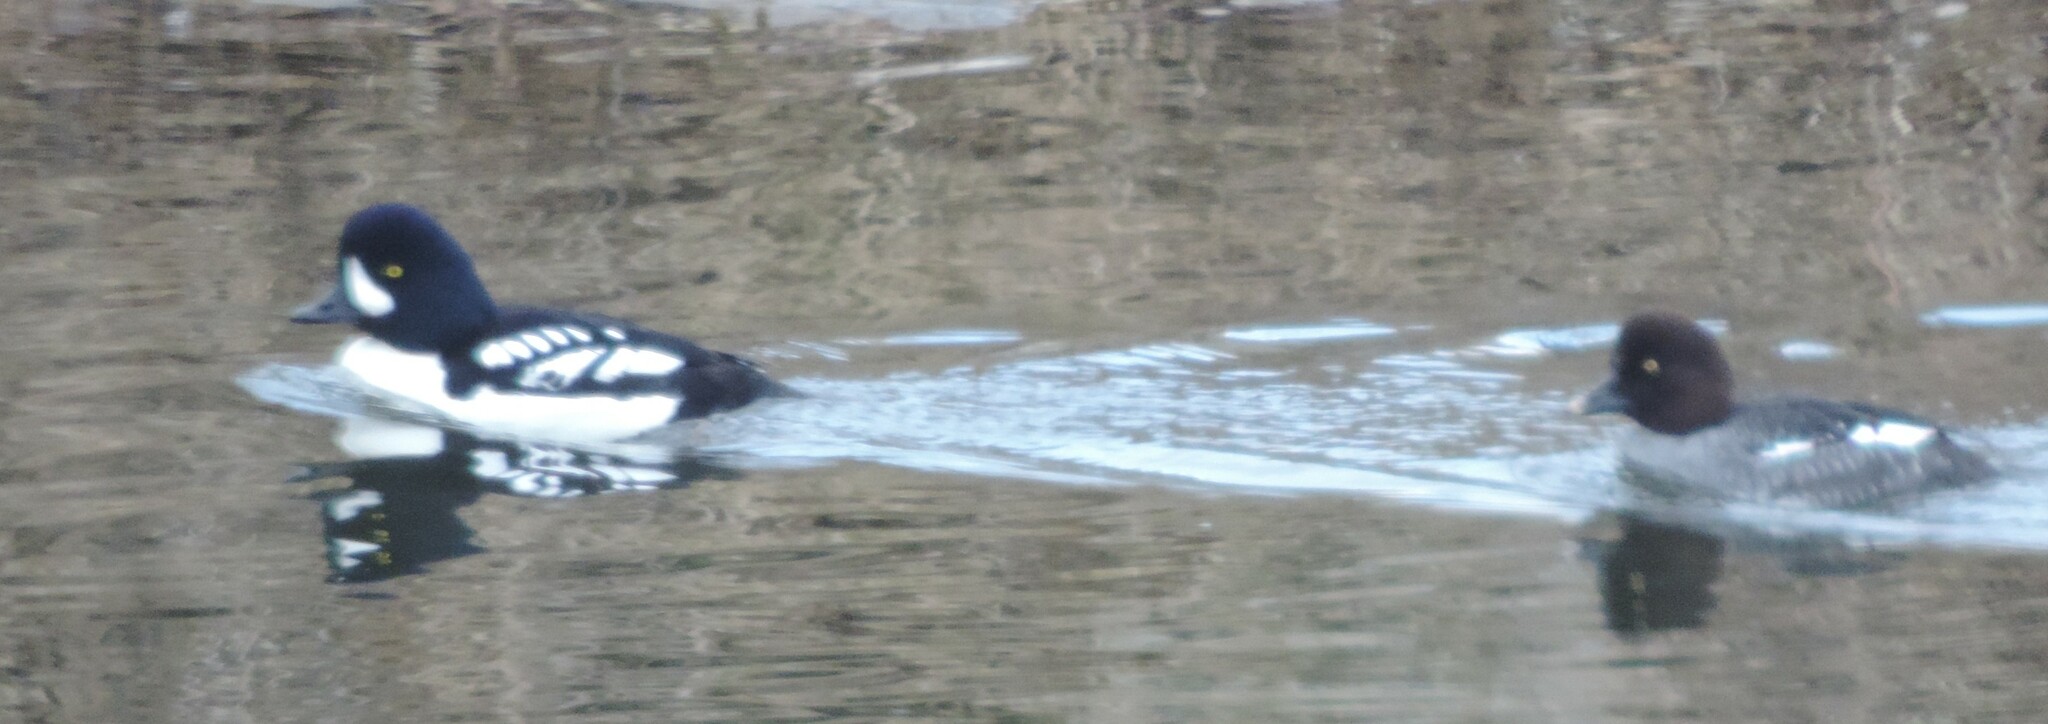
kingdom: Animalia
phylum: Chordata
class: Aves
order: Anseriformes
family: Anatidae
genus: Bucephala
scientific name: Bucephala islandica
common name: Barrow's goldeneye
